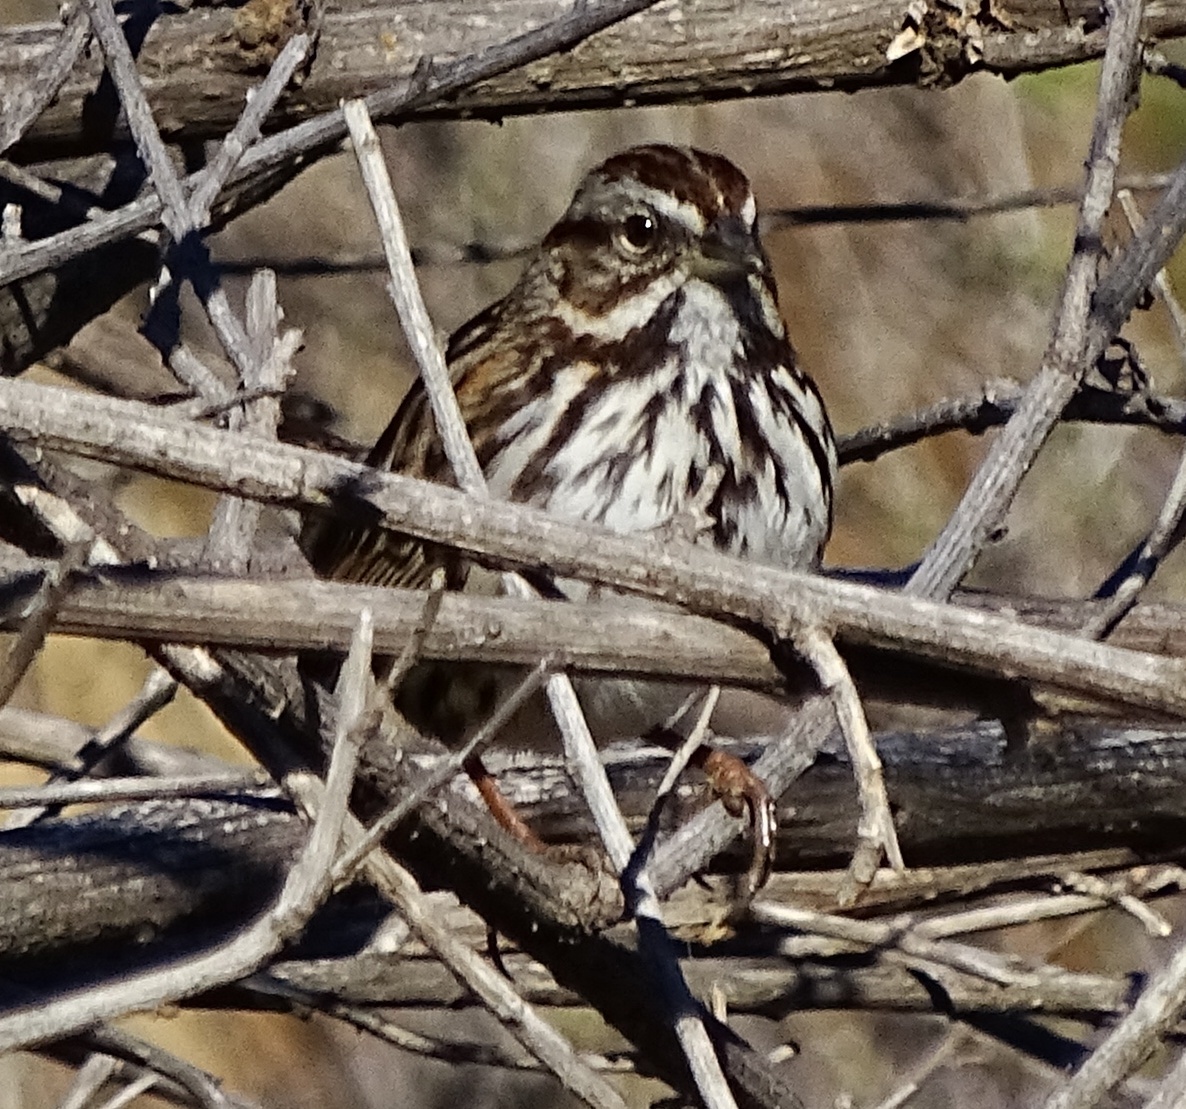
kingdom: Animalia
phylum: Chordata
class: Aves
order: Passeriformes
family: Passerellidae
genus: Melospiza
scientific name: Melospiza melodia
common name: Song sparrow
